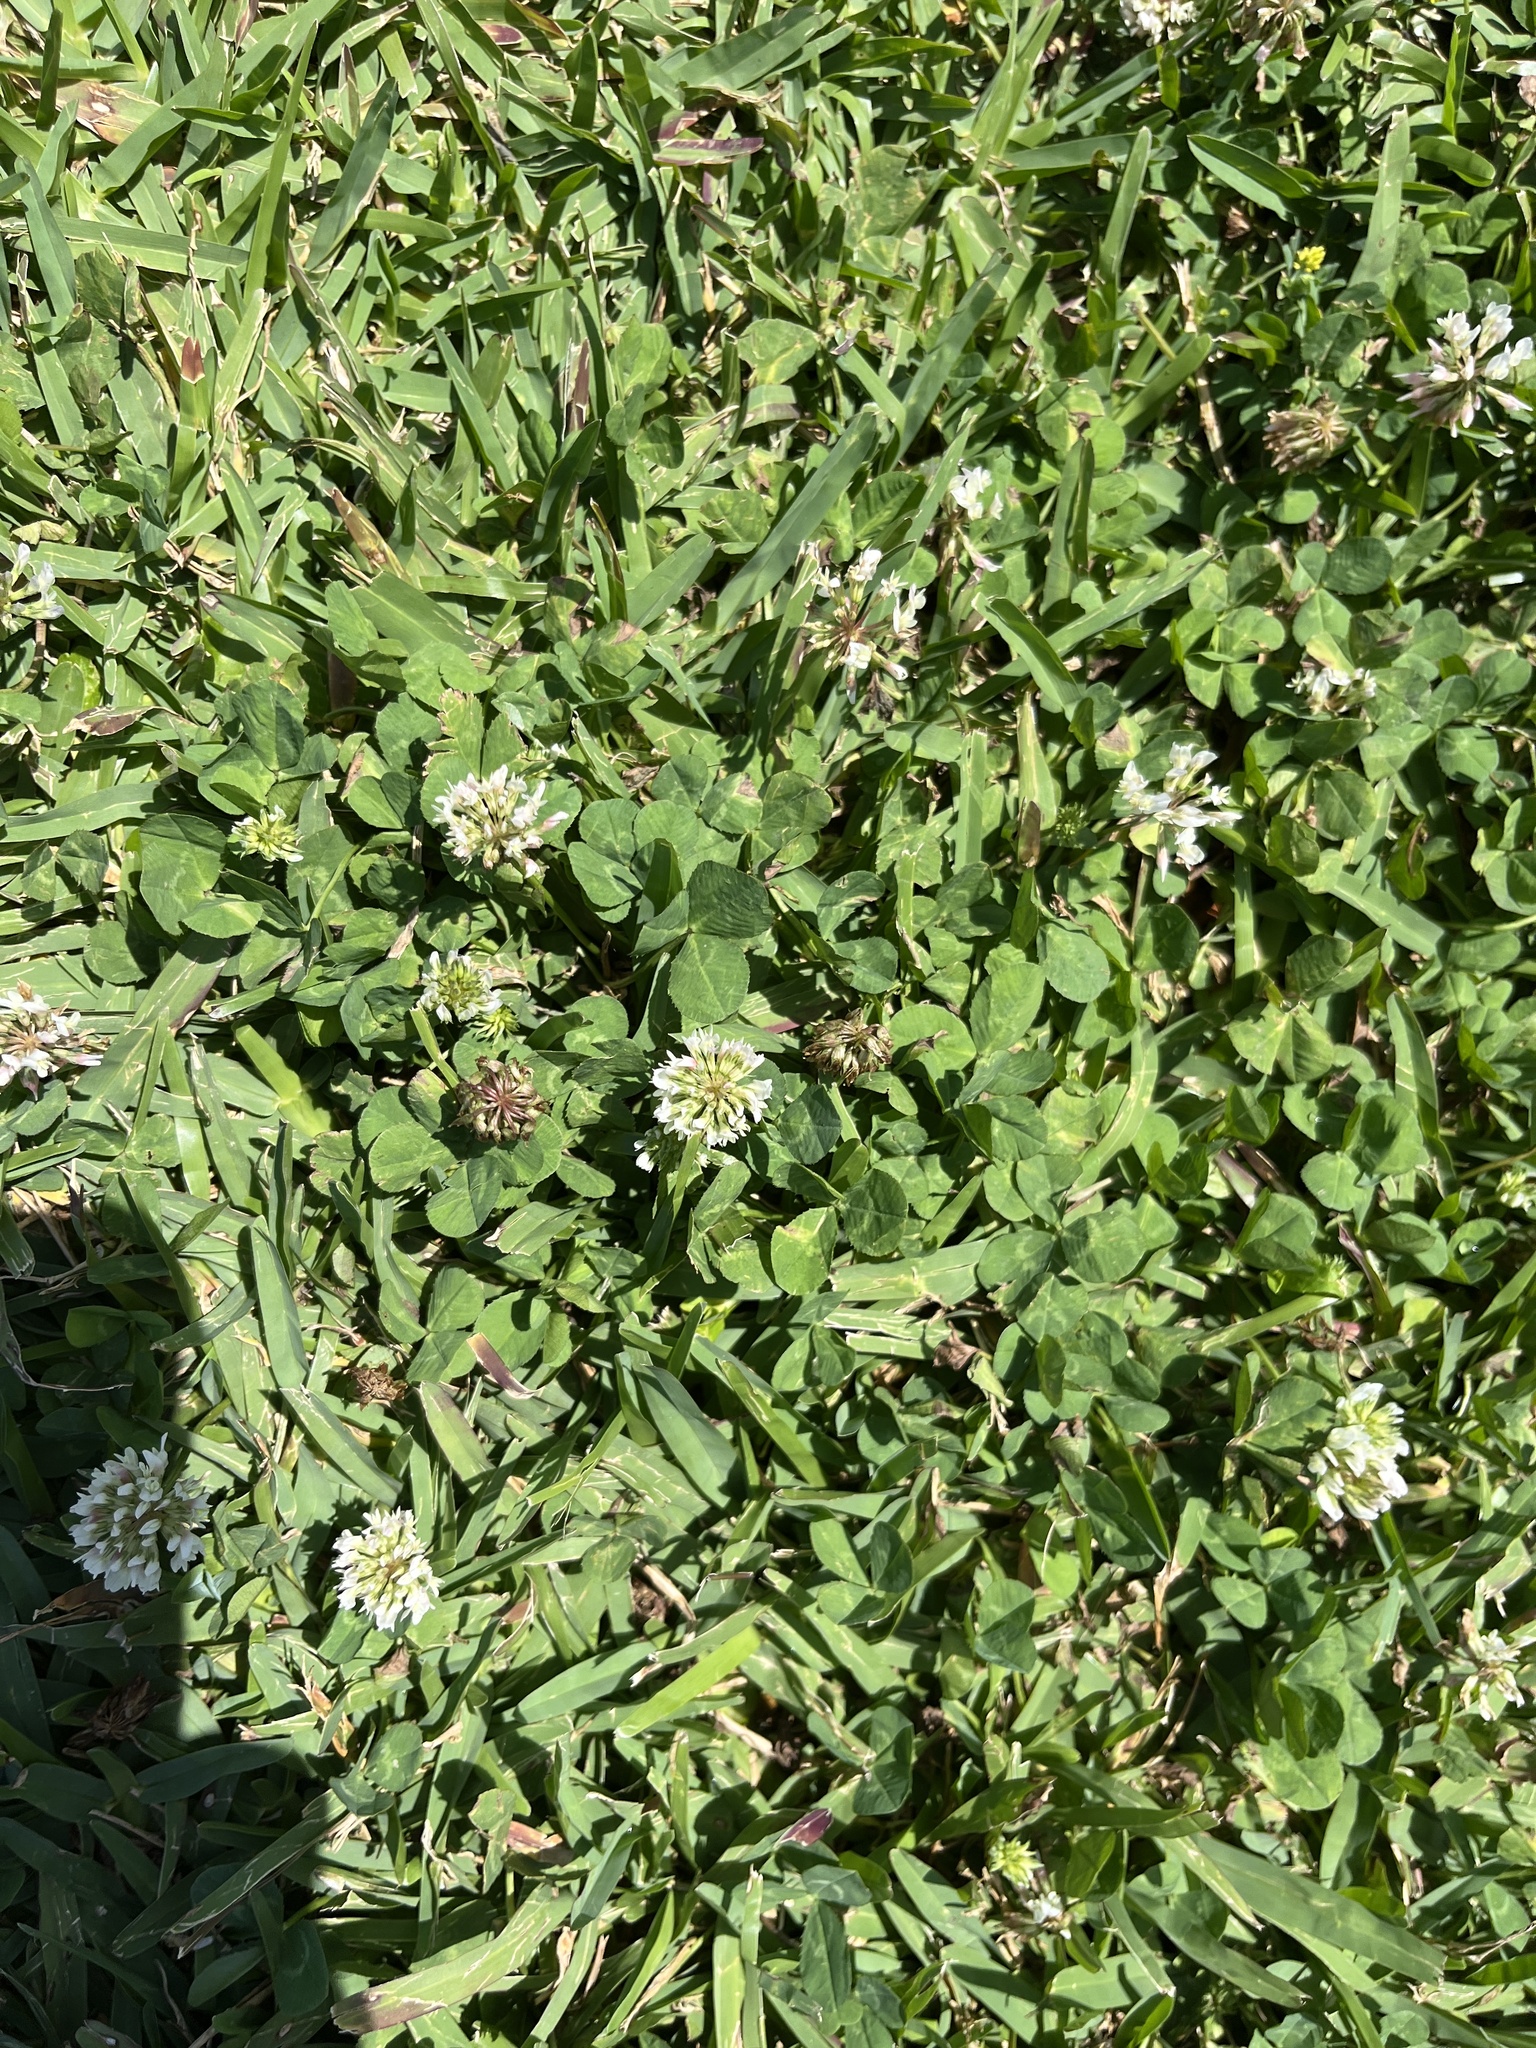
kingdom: Plantae
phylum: Tracheophyta
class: Magnoliopsida
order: Fabales
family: Fabaceae
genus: Trifolium
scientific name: Trifolium repens
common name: White clover
